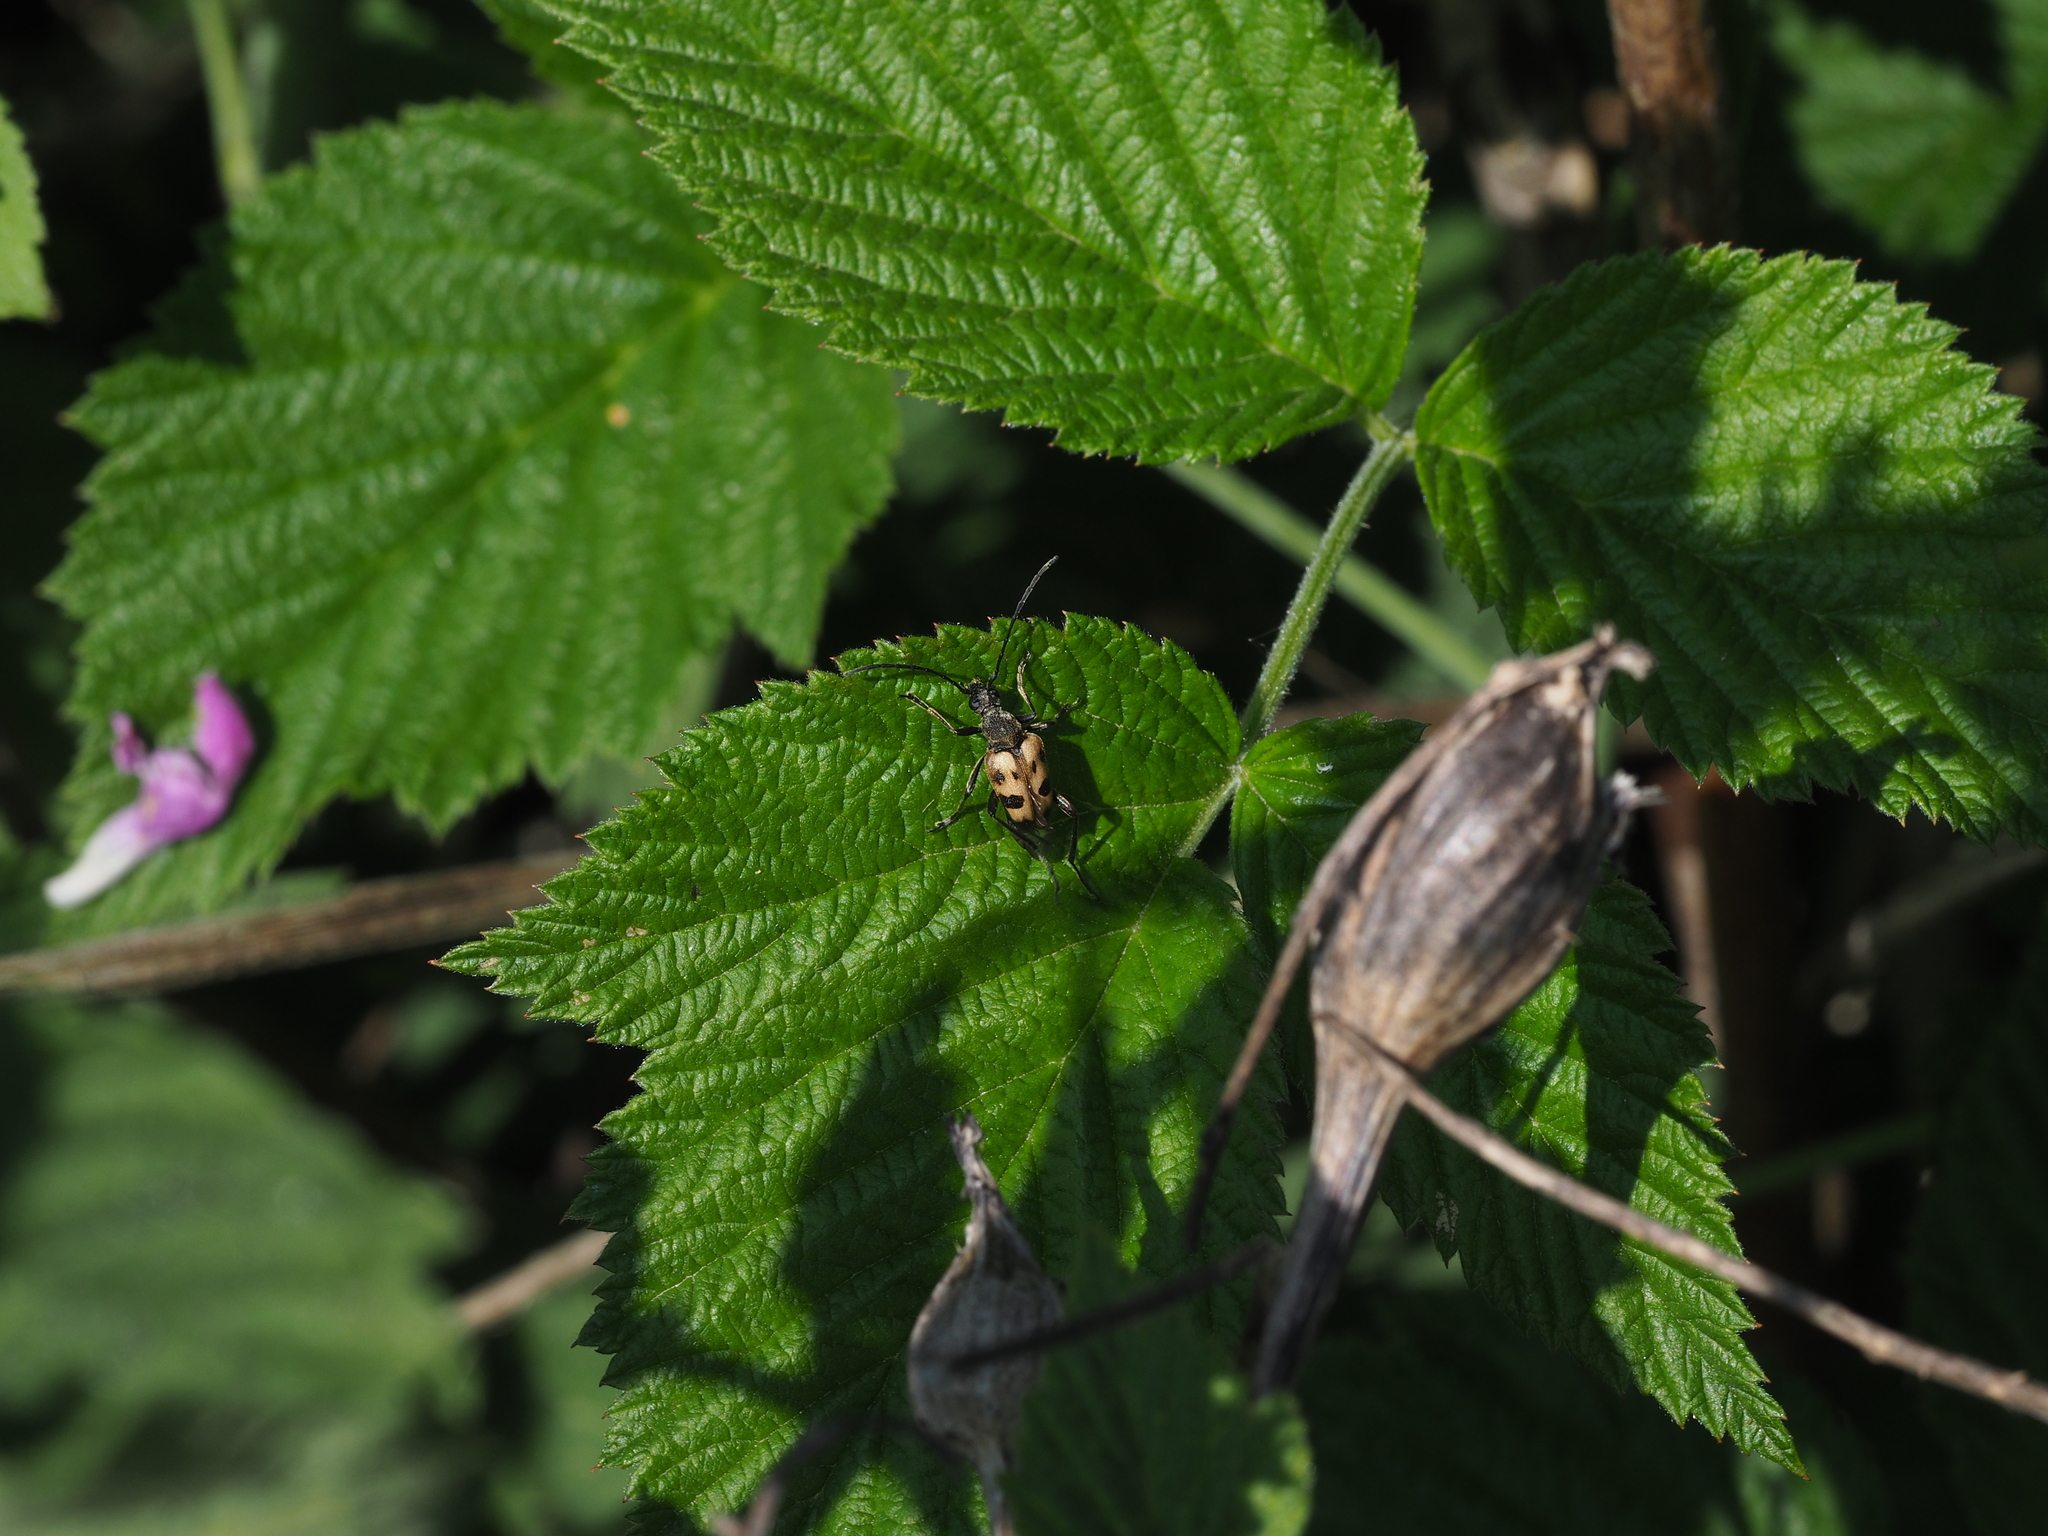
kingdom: Animalia
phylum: Arthropoda
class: Insecta
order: Coleoptera
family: Cerambycidae
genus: Pachytodes
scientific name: Pachytodes cerambyciformis
